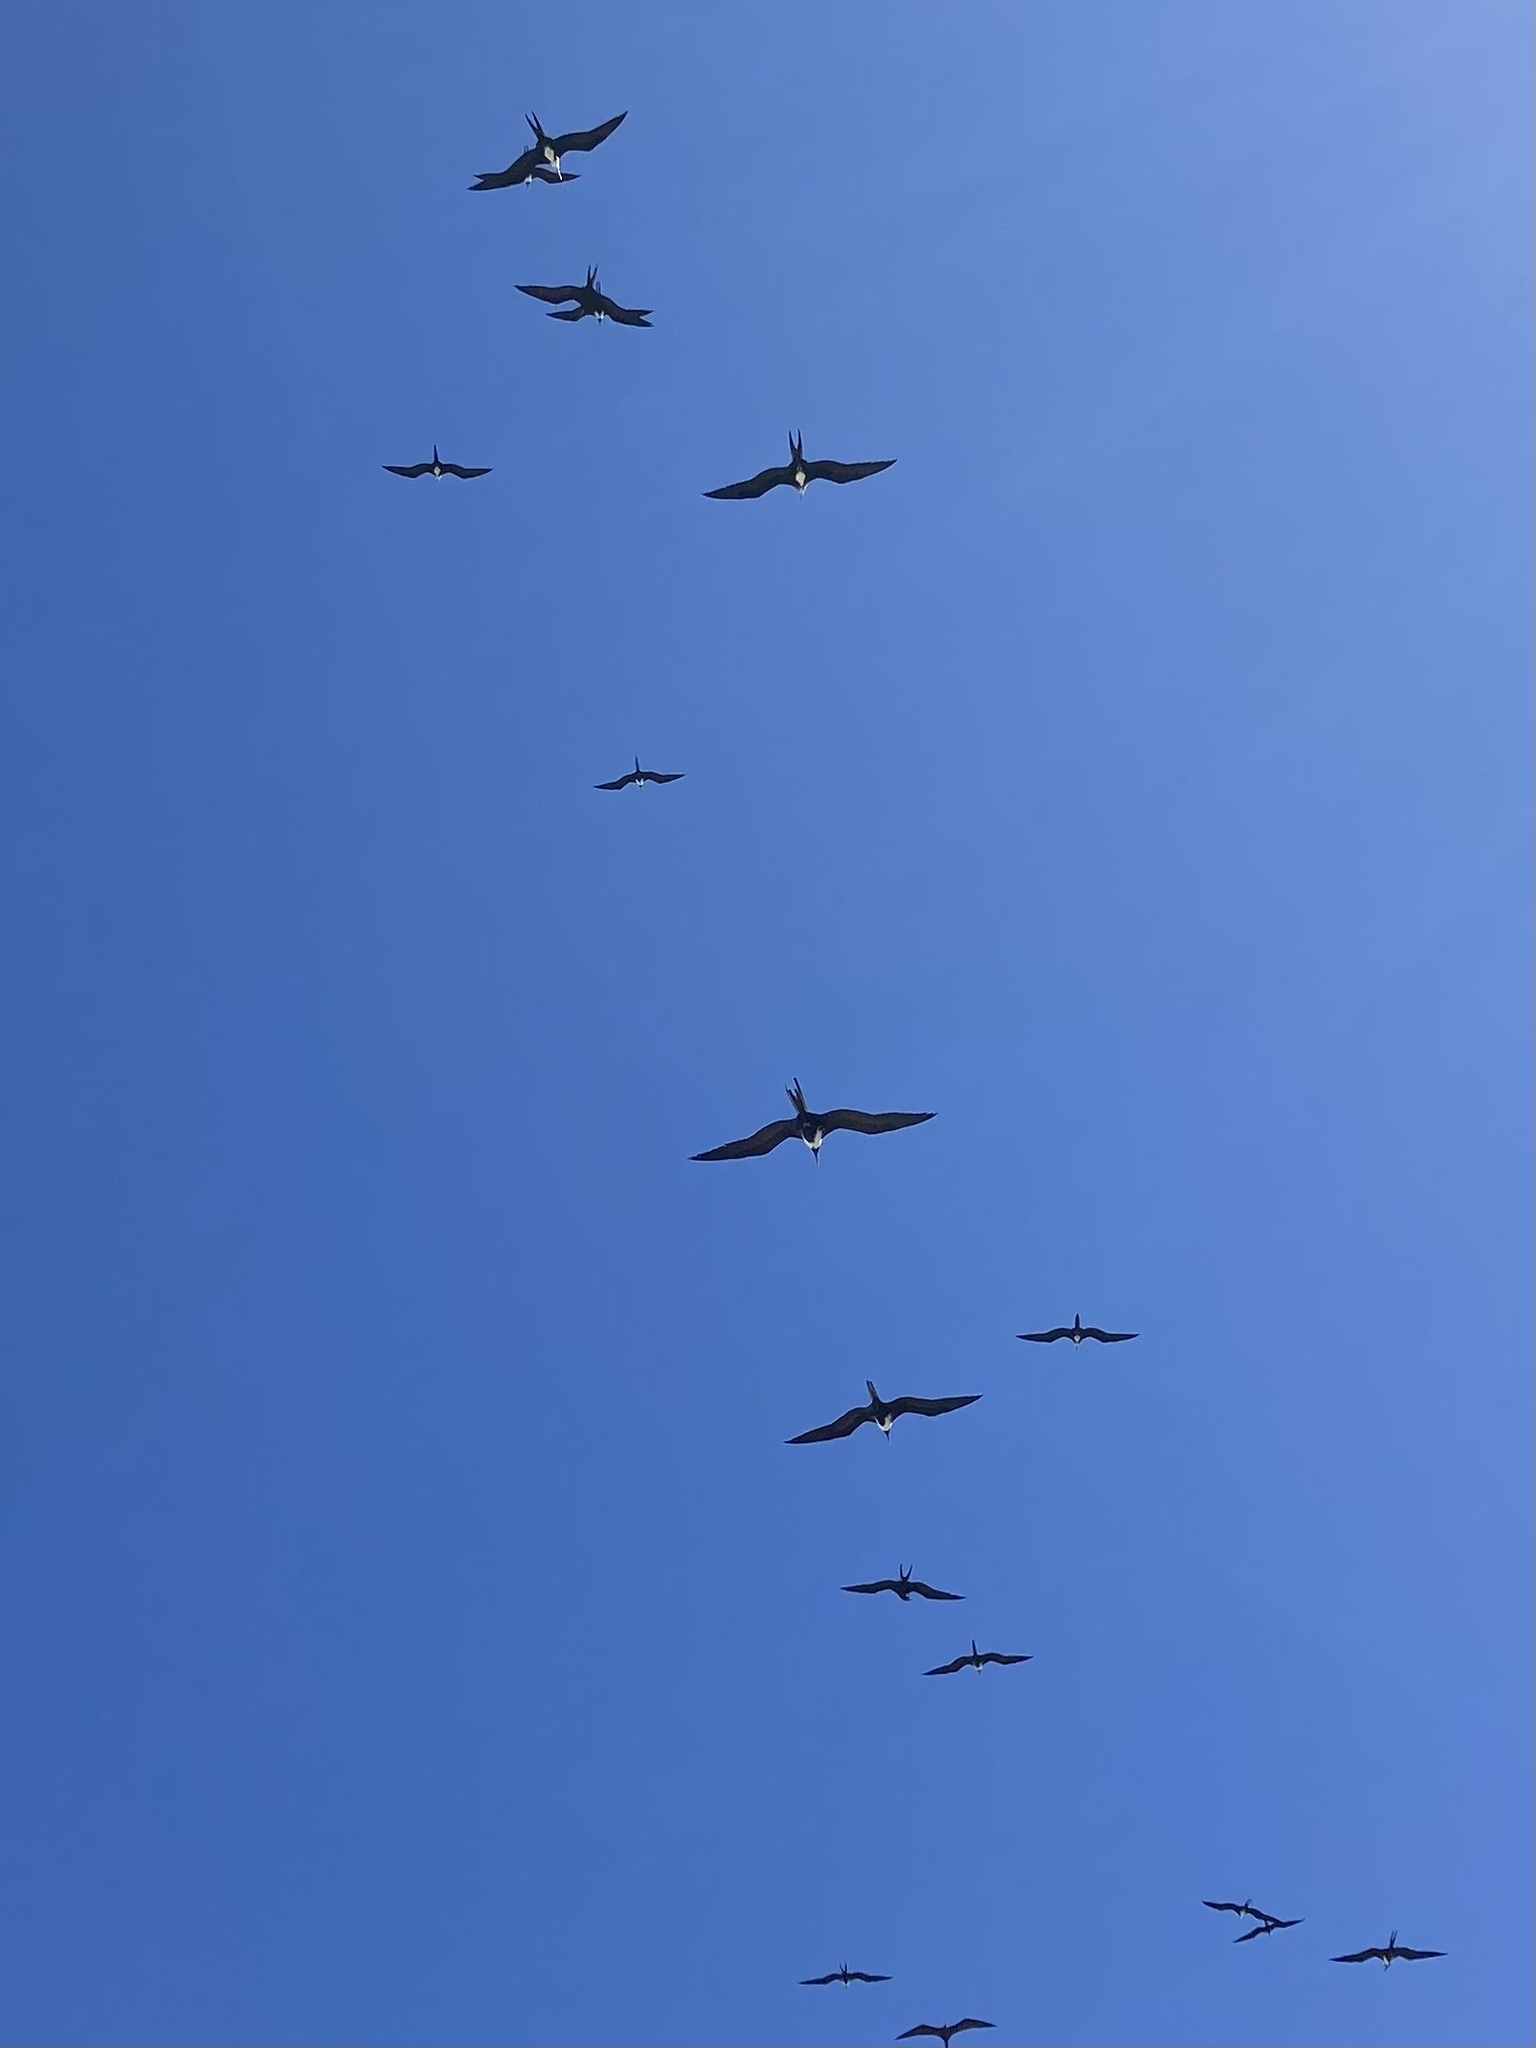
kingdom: Animalia
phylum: Chordata
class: Aves
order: Suliformes
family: Fregatidae
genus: Fregata
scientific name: Fregata magnificens
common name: Magnificent frigatebird
